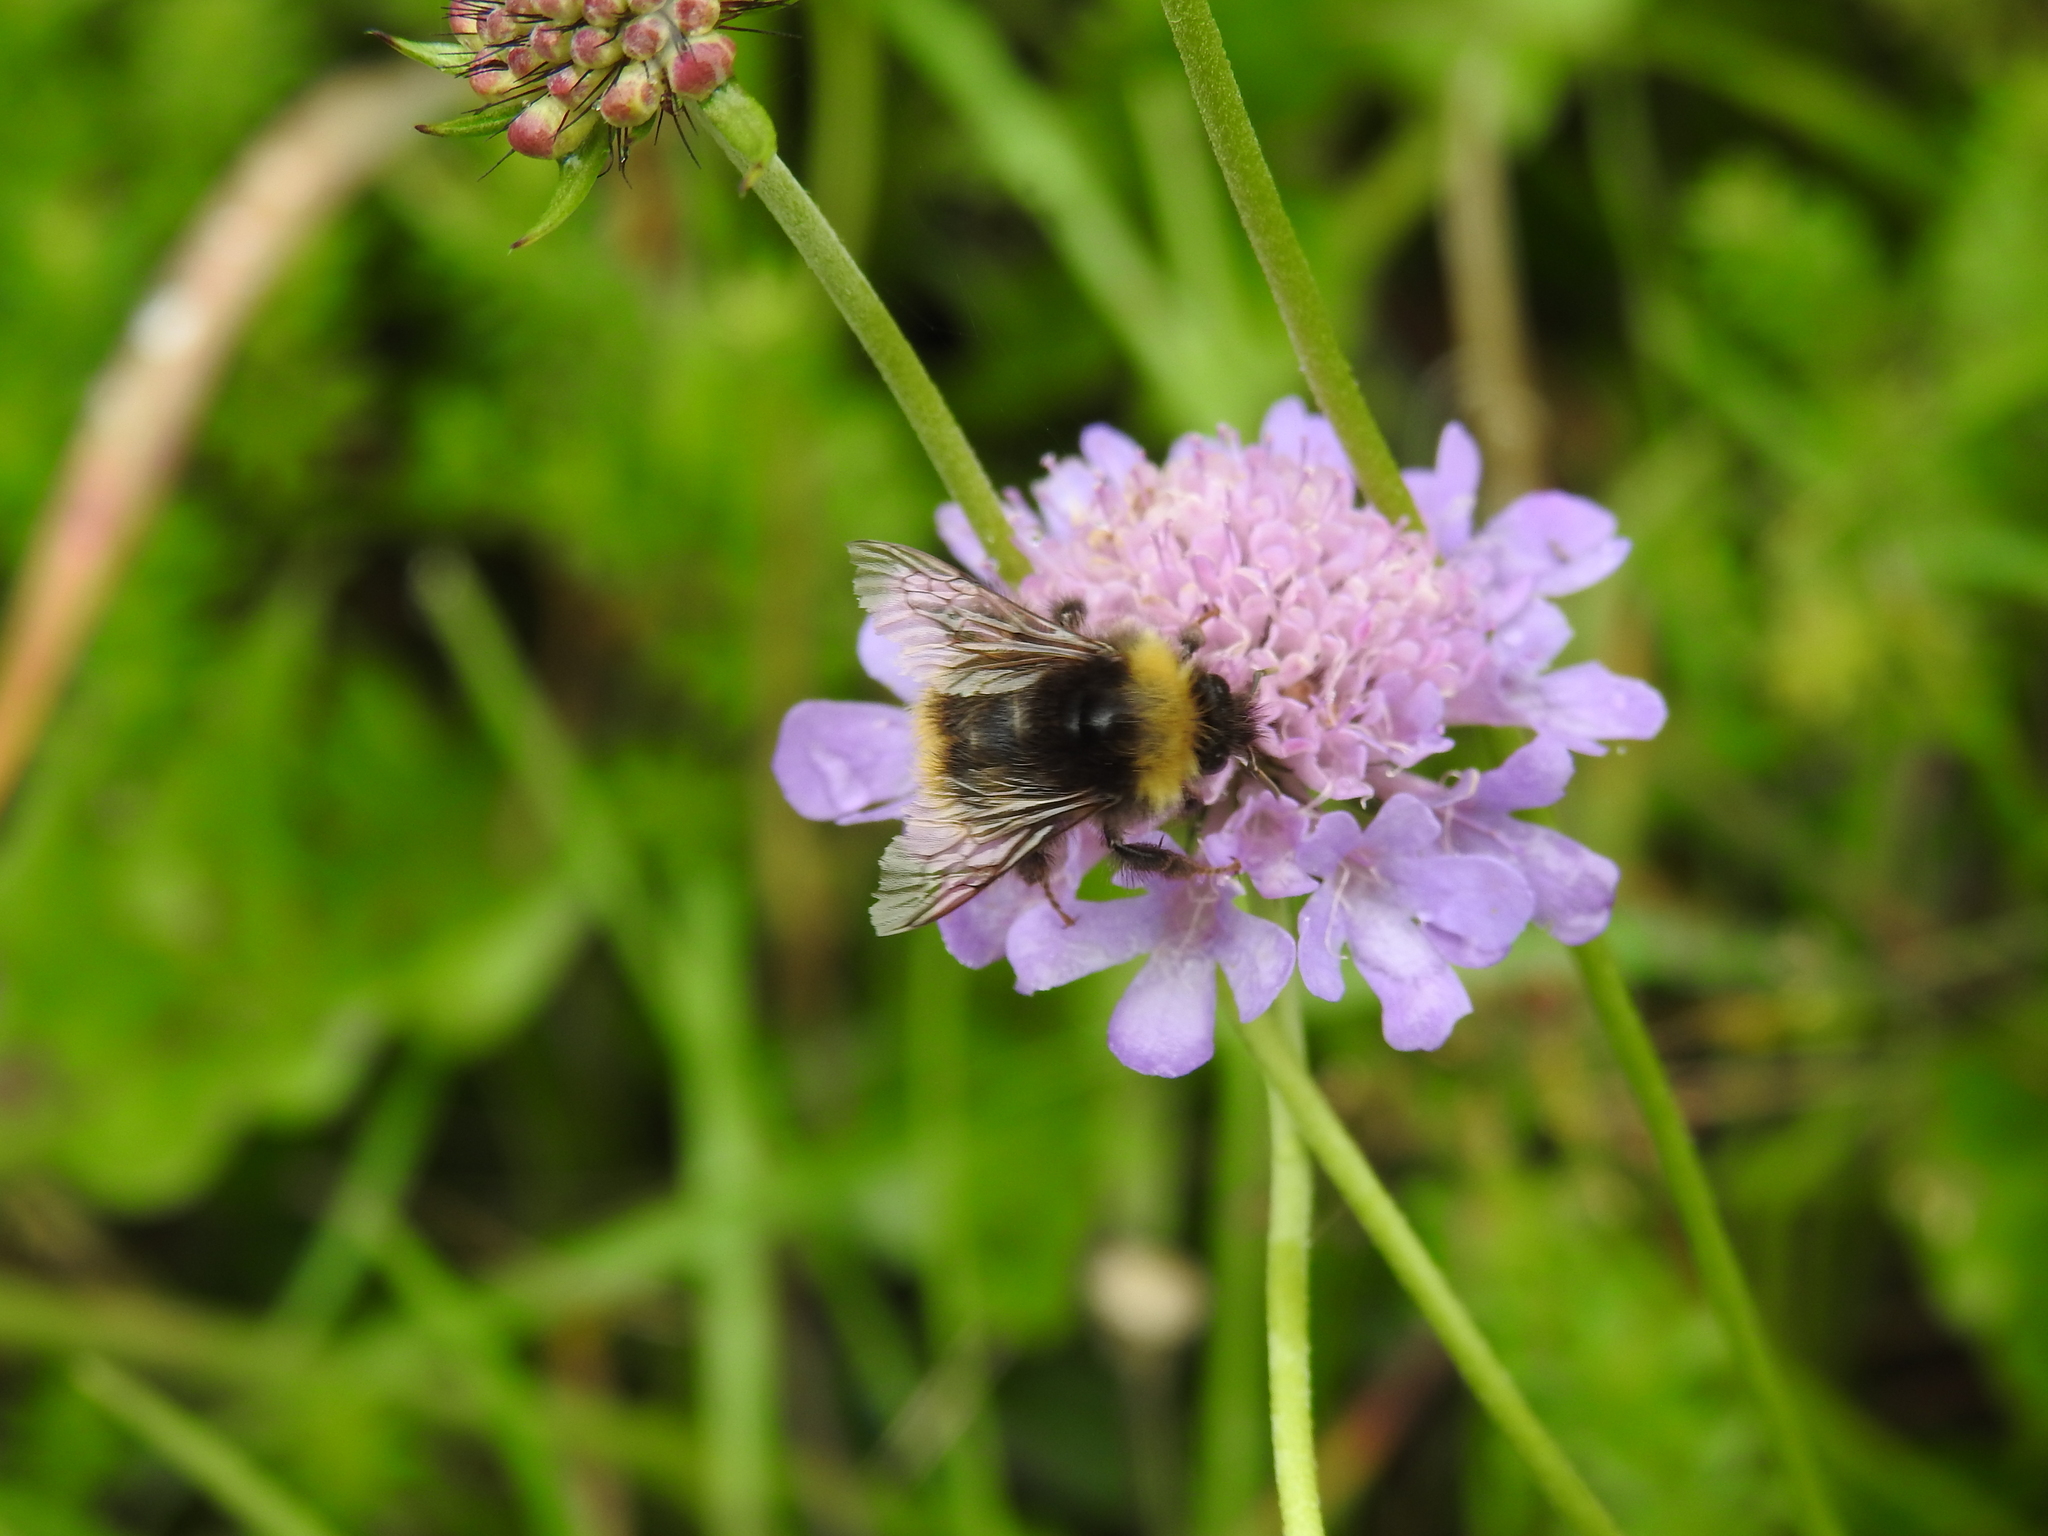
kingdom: Animalia
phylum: Arthropoda
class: Insecta
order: Hymenoptera
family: Apidae
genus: Bombus
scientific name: Bombus pratorum
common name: Early humble-bee
